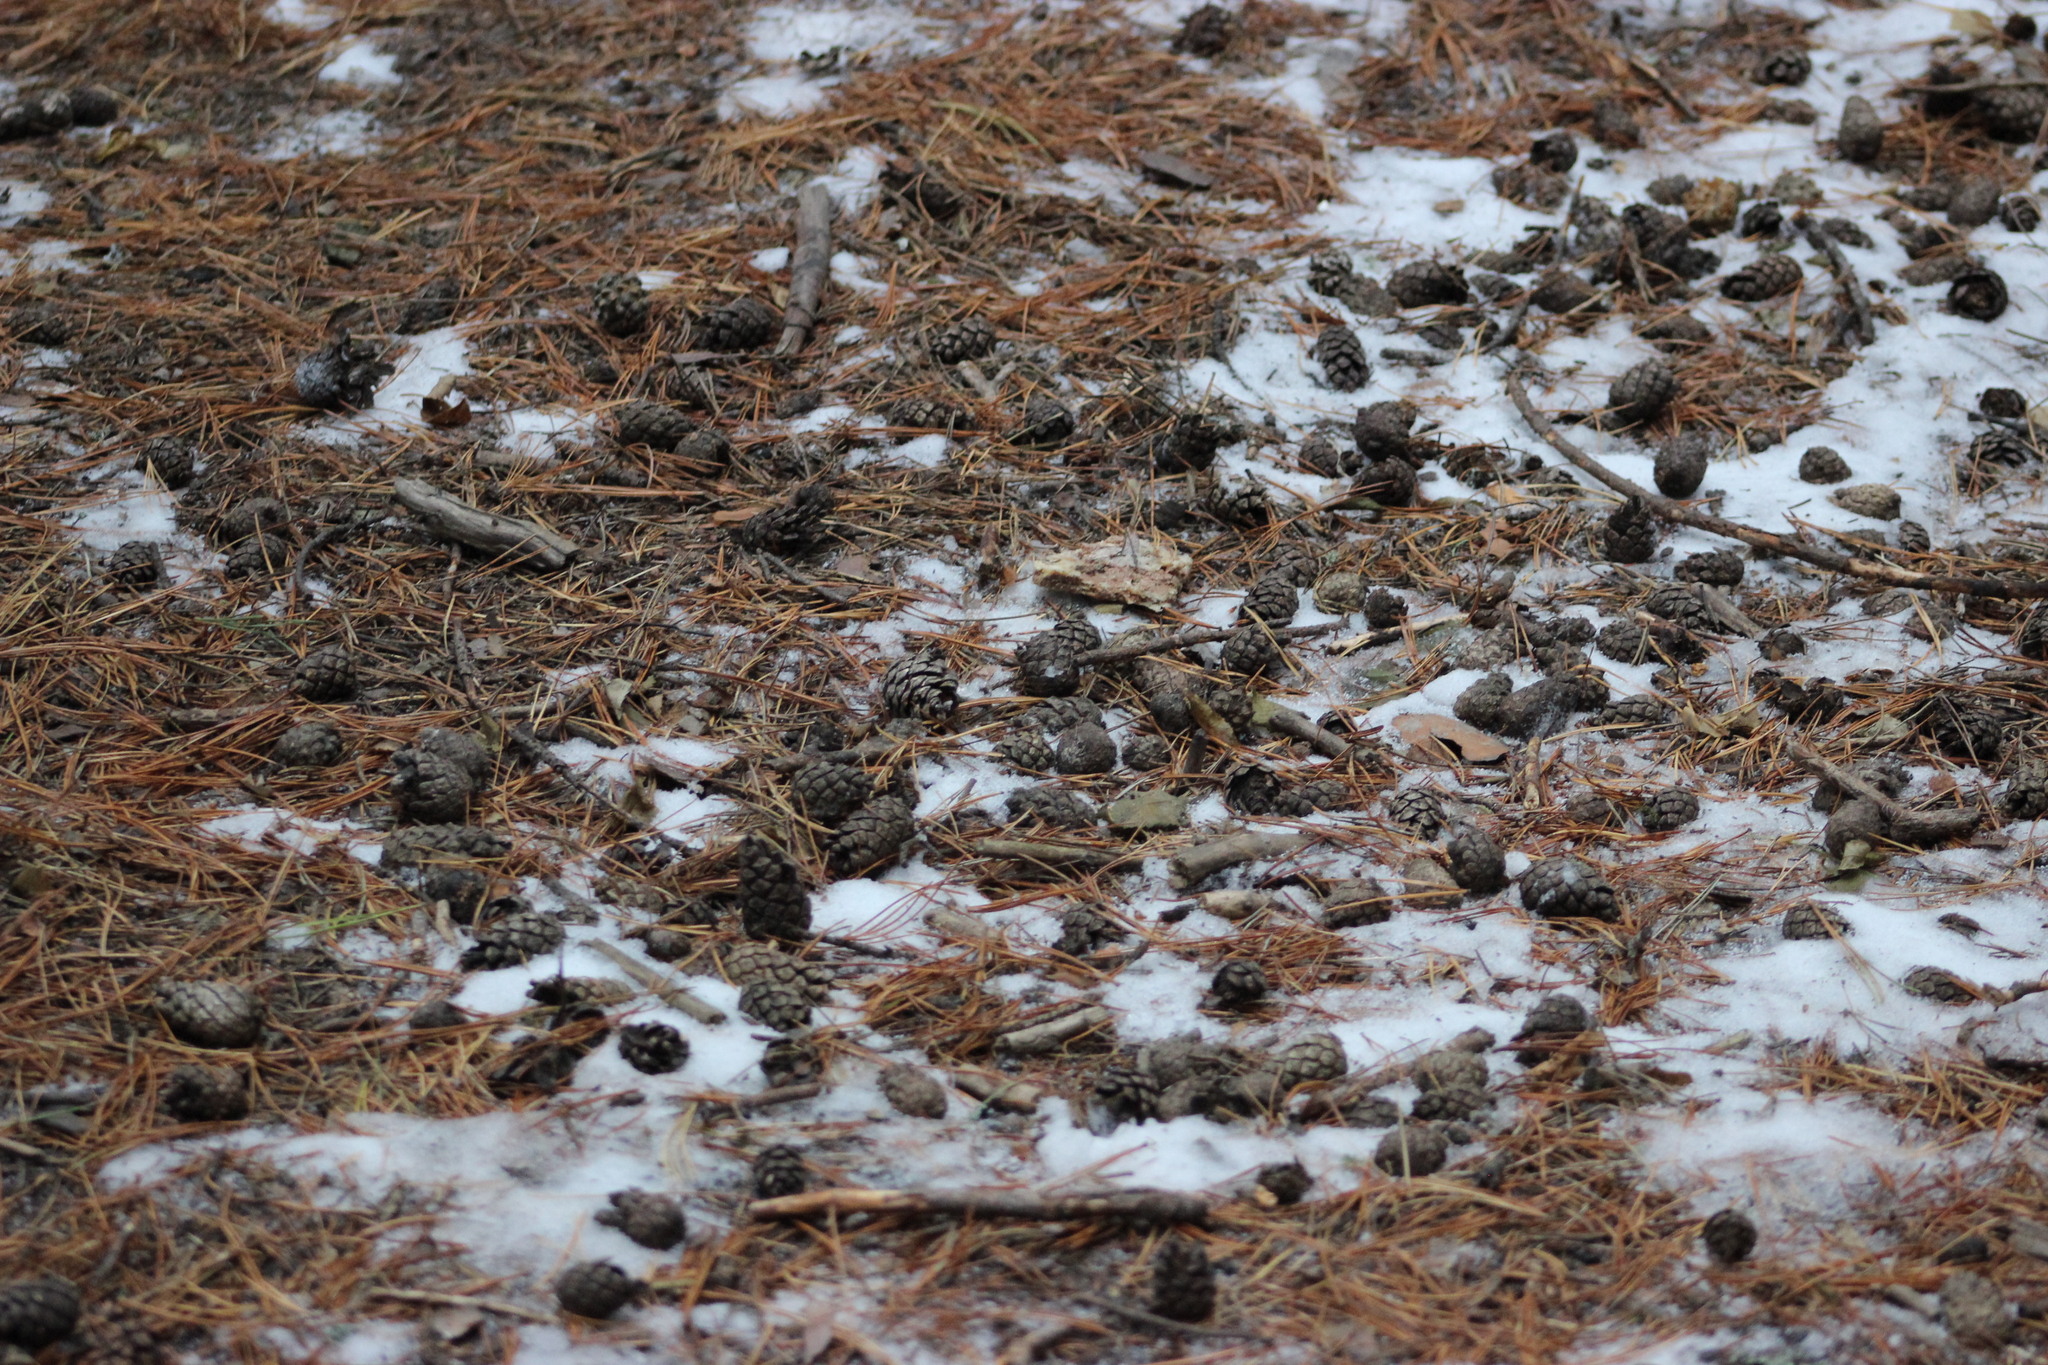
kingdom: Plantae
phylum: Tracheophyta
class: Pinopsida
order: Pinales
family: Pinaceae
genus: Pinus
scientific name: Pinus sylvestris
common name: Scots pine
